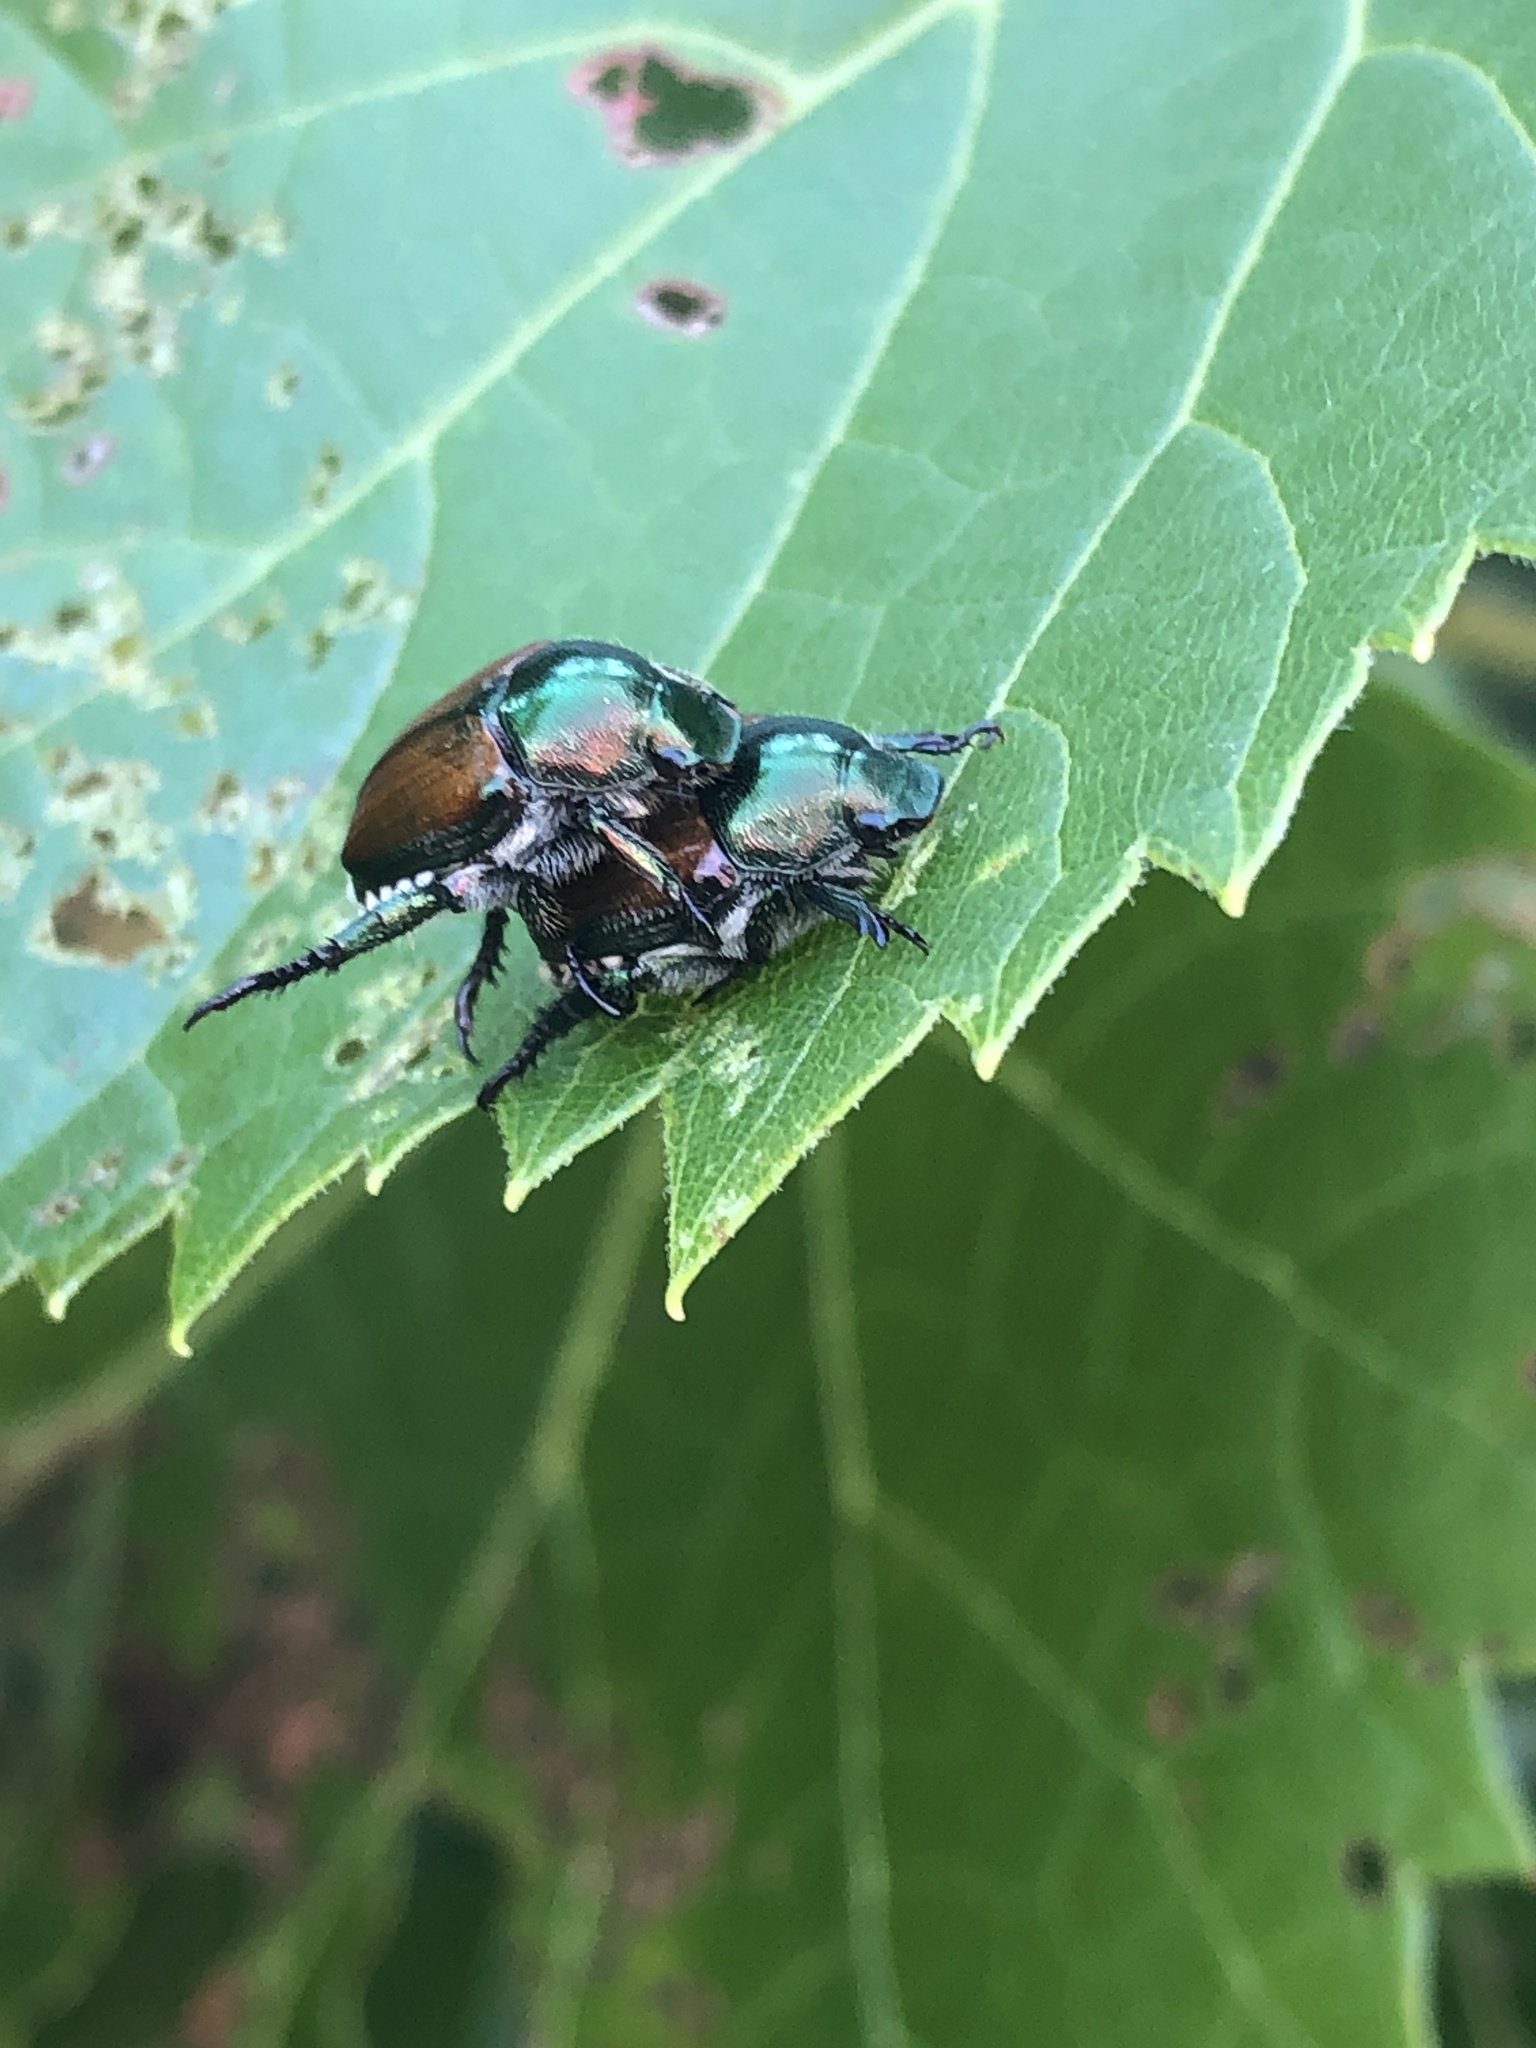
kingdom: Animalia
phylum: Arthropoda
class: Insecta
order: Coleoptera
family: Scarabaeidae
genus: Popillia
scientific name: Popillia japonica
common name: Japanese beetle
